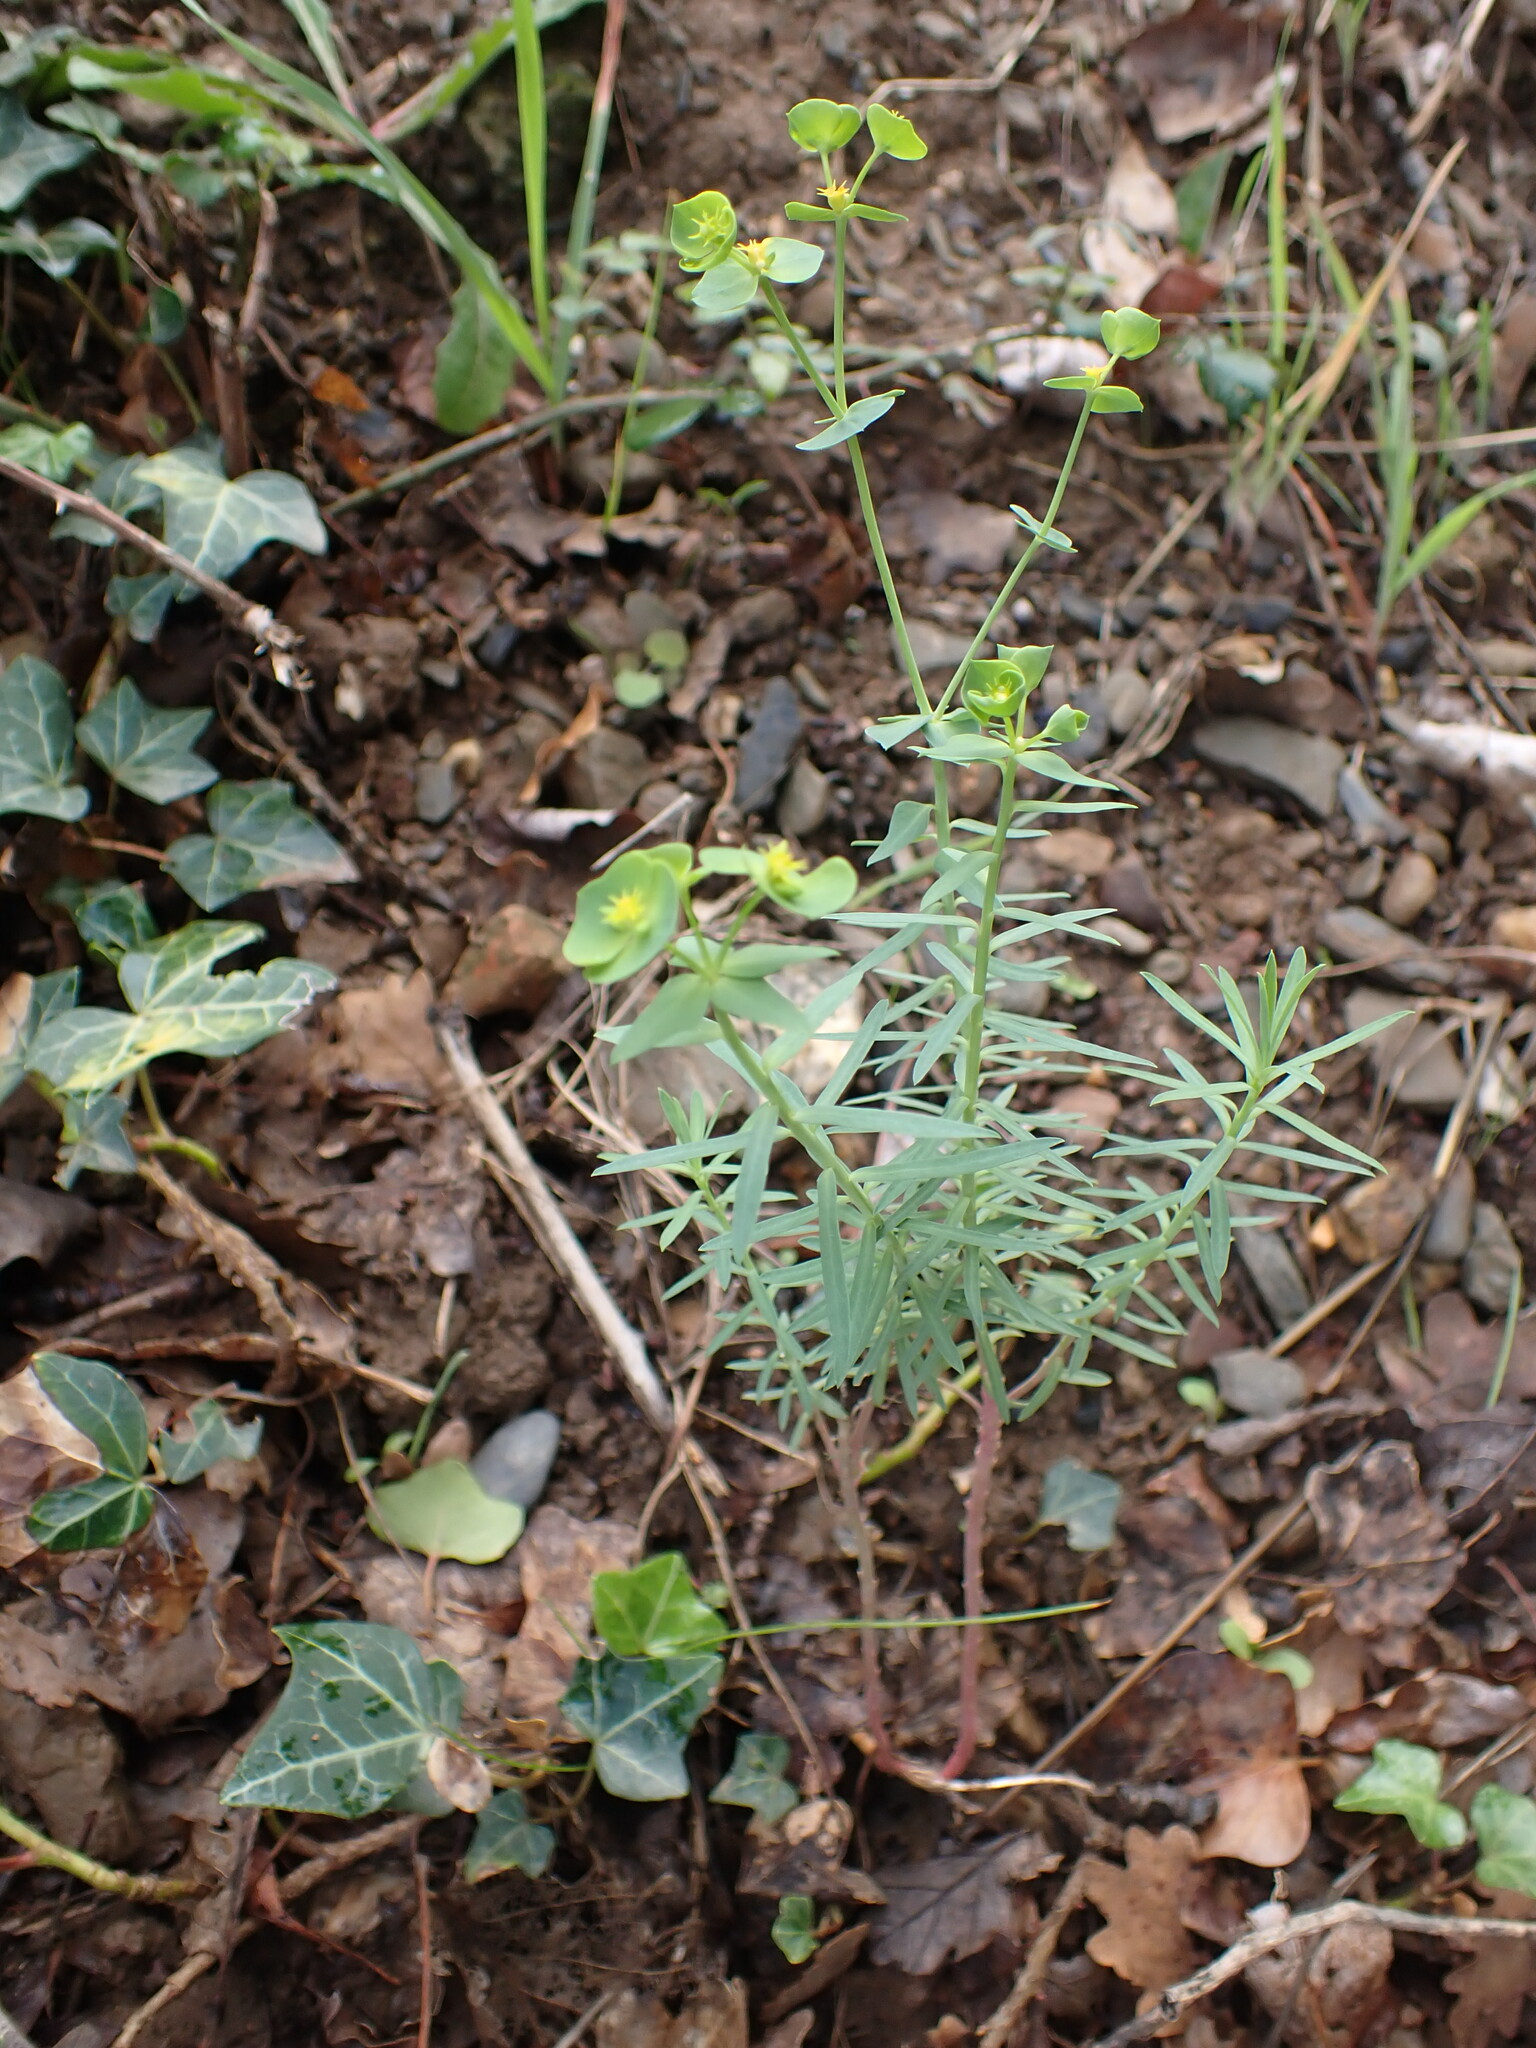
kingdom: Plantae
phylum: Tracheophyta
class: Magnoliopsida
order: Malpighiales
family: Euphorbiaceae
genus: Euphorbia
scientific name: Euphorbia segetalis
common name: Corn spurge
